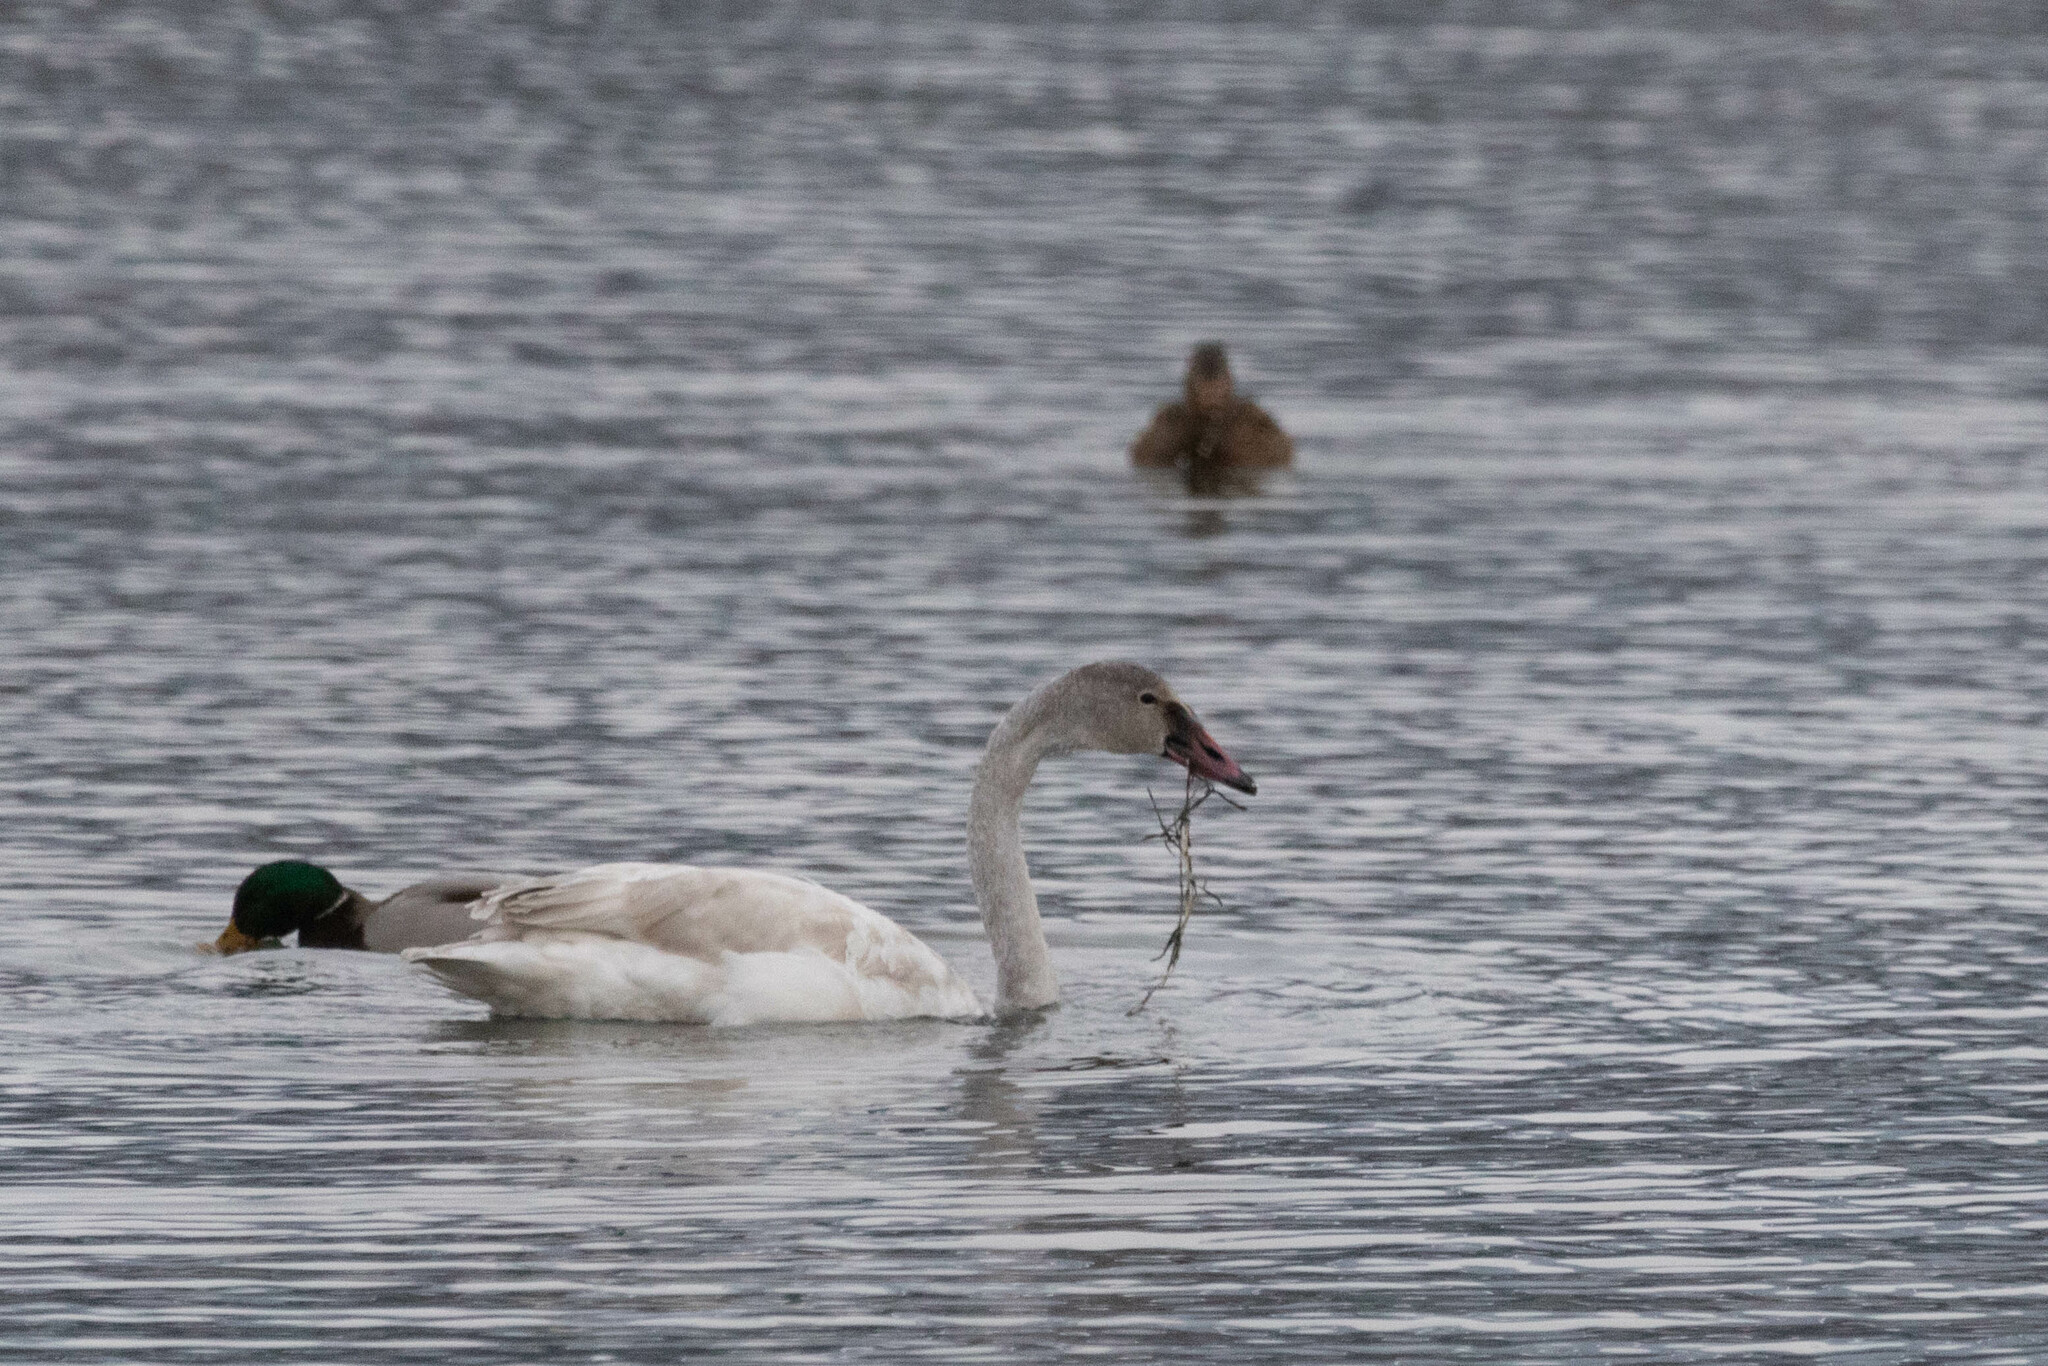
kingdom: Animalia
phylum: Chordata
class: Aves
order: Anseriformes
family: Anatidae
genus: Cygnus
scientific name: Cygnus buccinator
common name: Trumpeter swan
